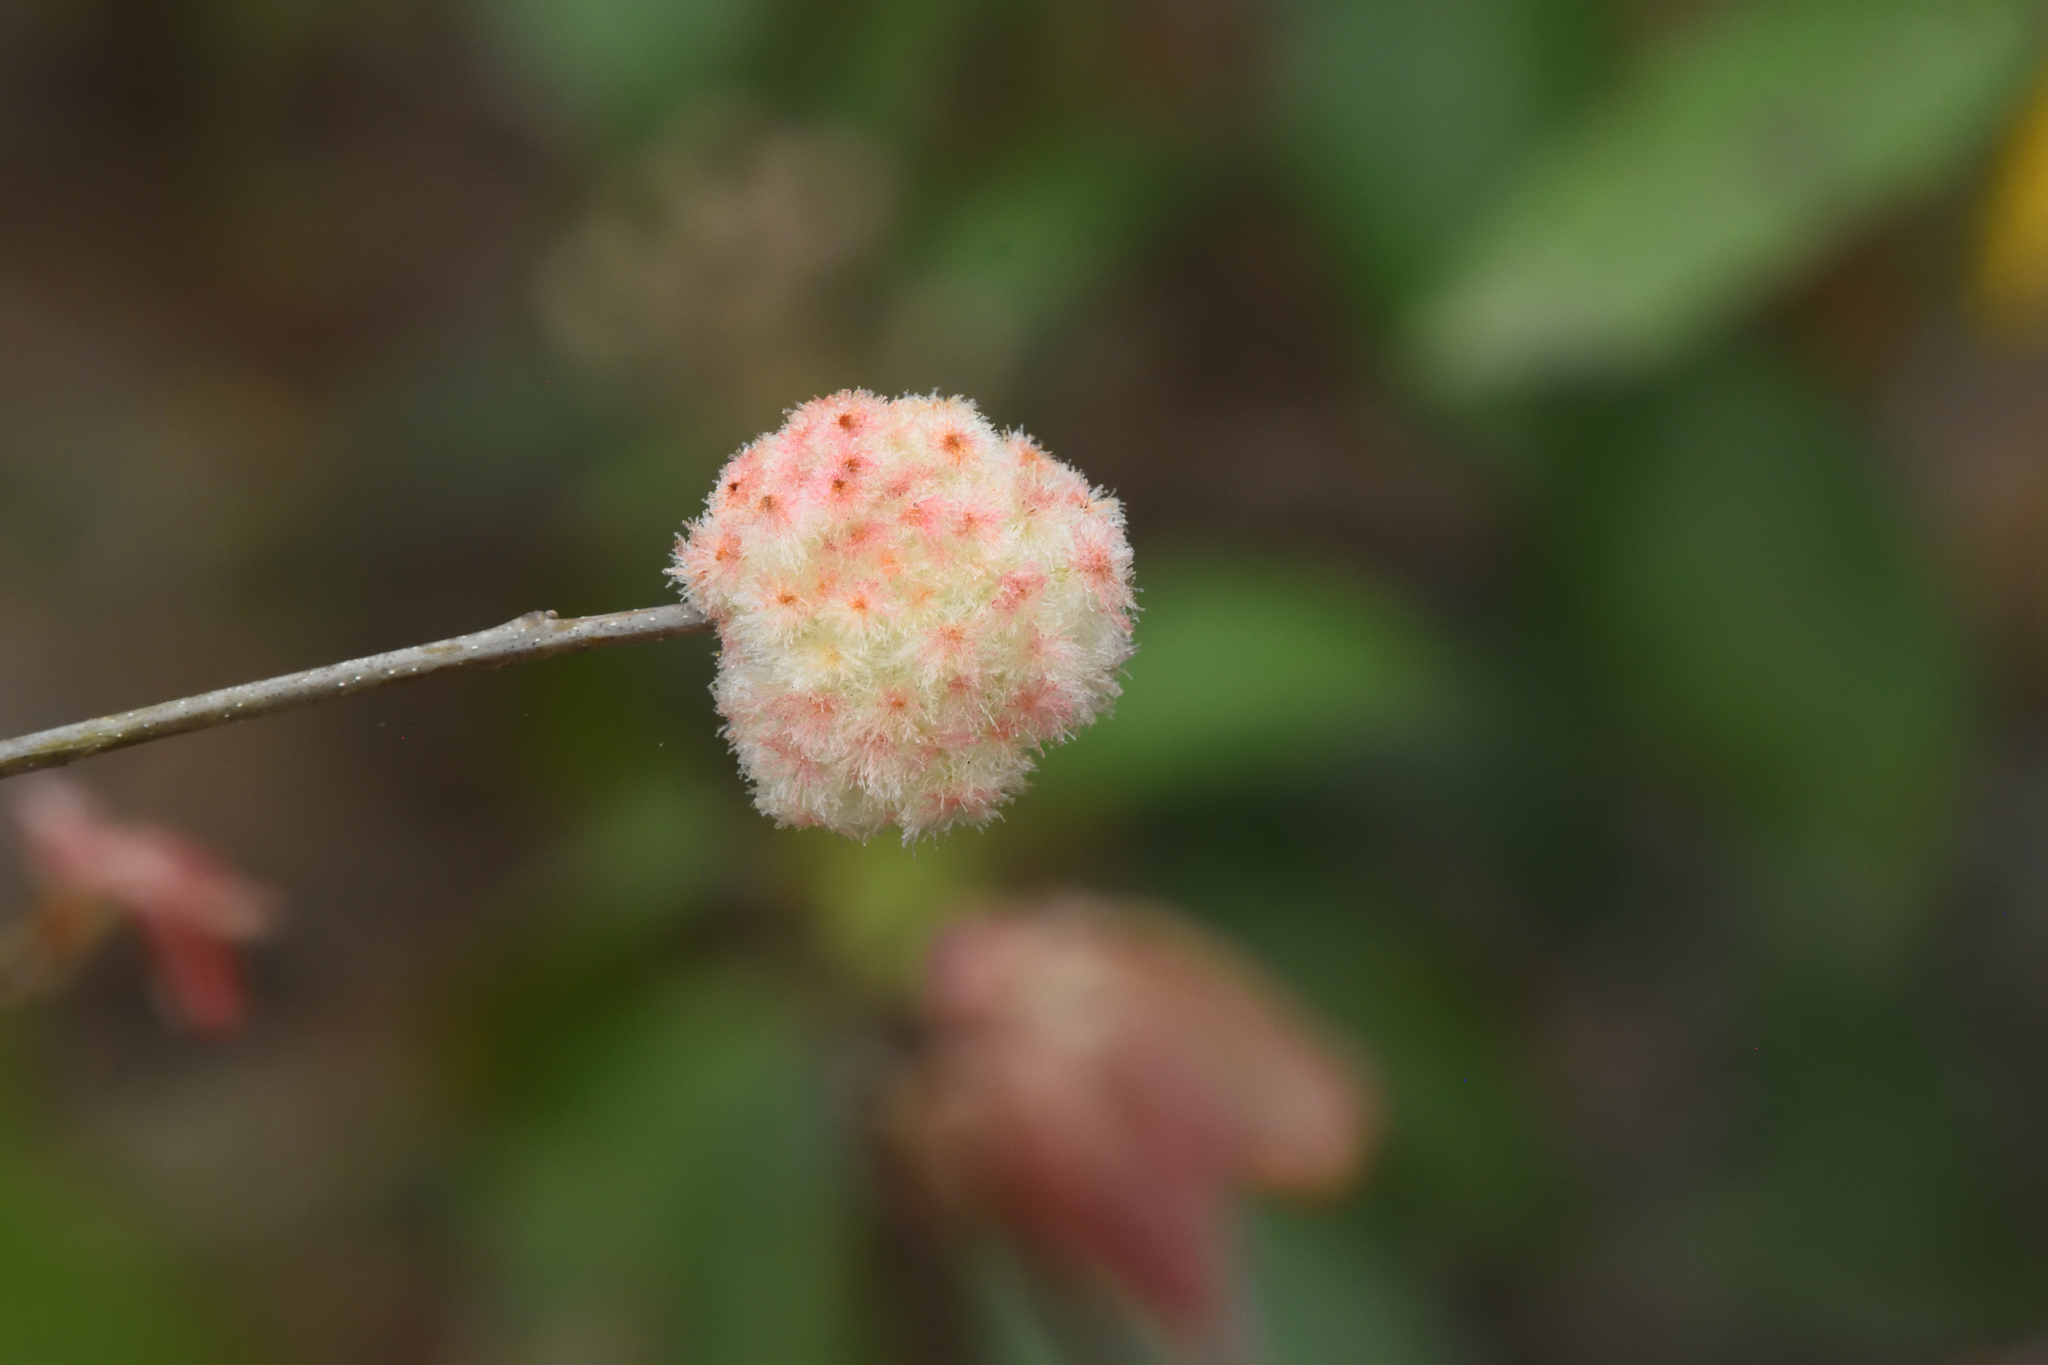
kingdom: Animalia
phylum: Arthropoda
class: Insecta
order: Hymenoptera
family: Cynipidae
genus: Callirhytis
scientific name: Callirhytis
